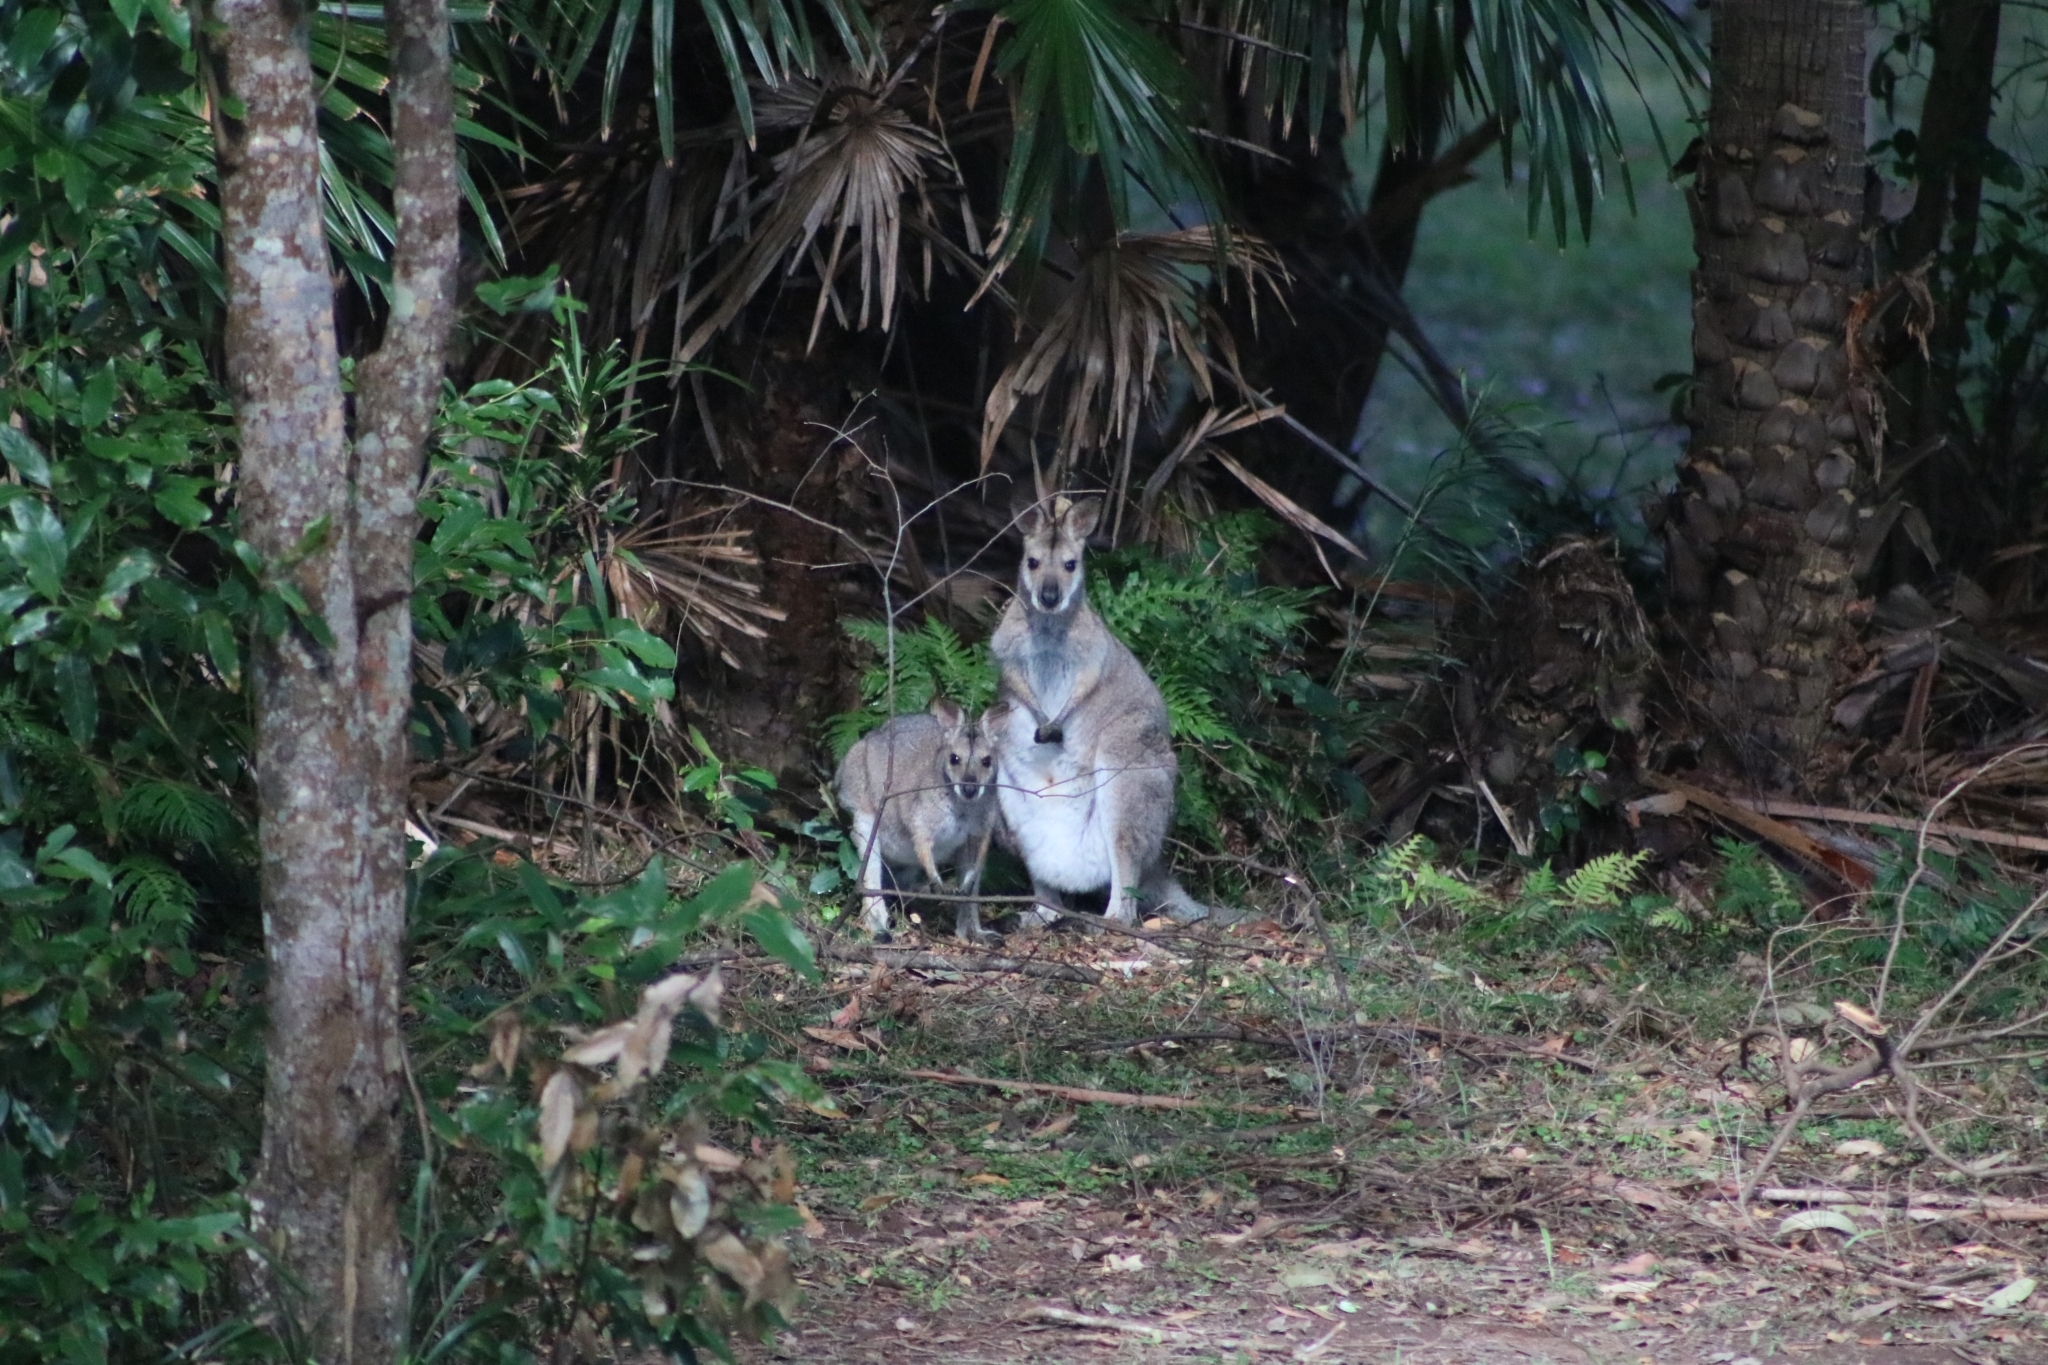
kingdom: Animalia
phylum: Chordata
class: Mammalia
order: Diprotodontia
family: Macropodidae
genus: Notamacropus
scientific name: Notamacropus rufogriseus
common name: Red-necked wallaby
